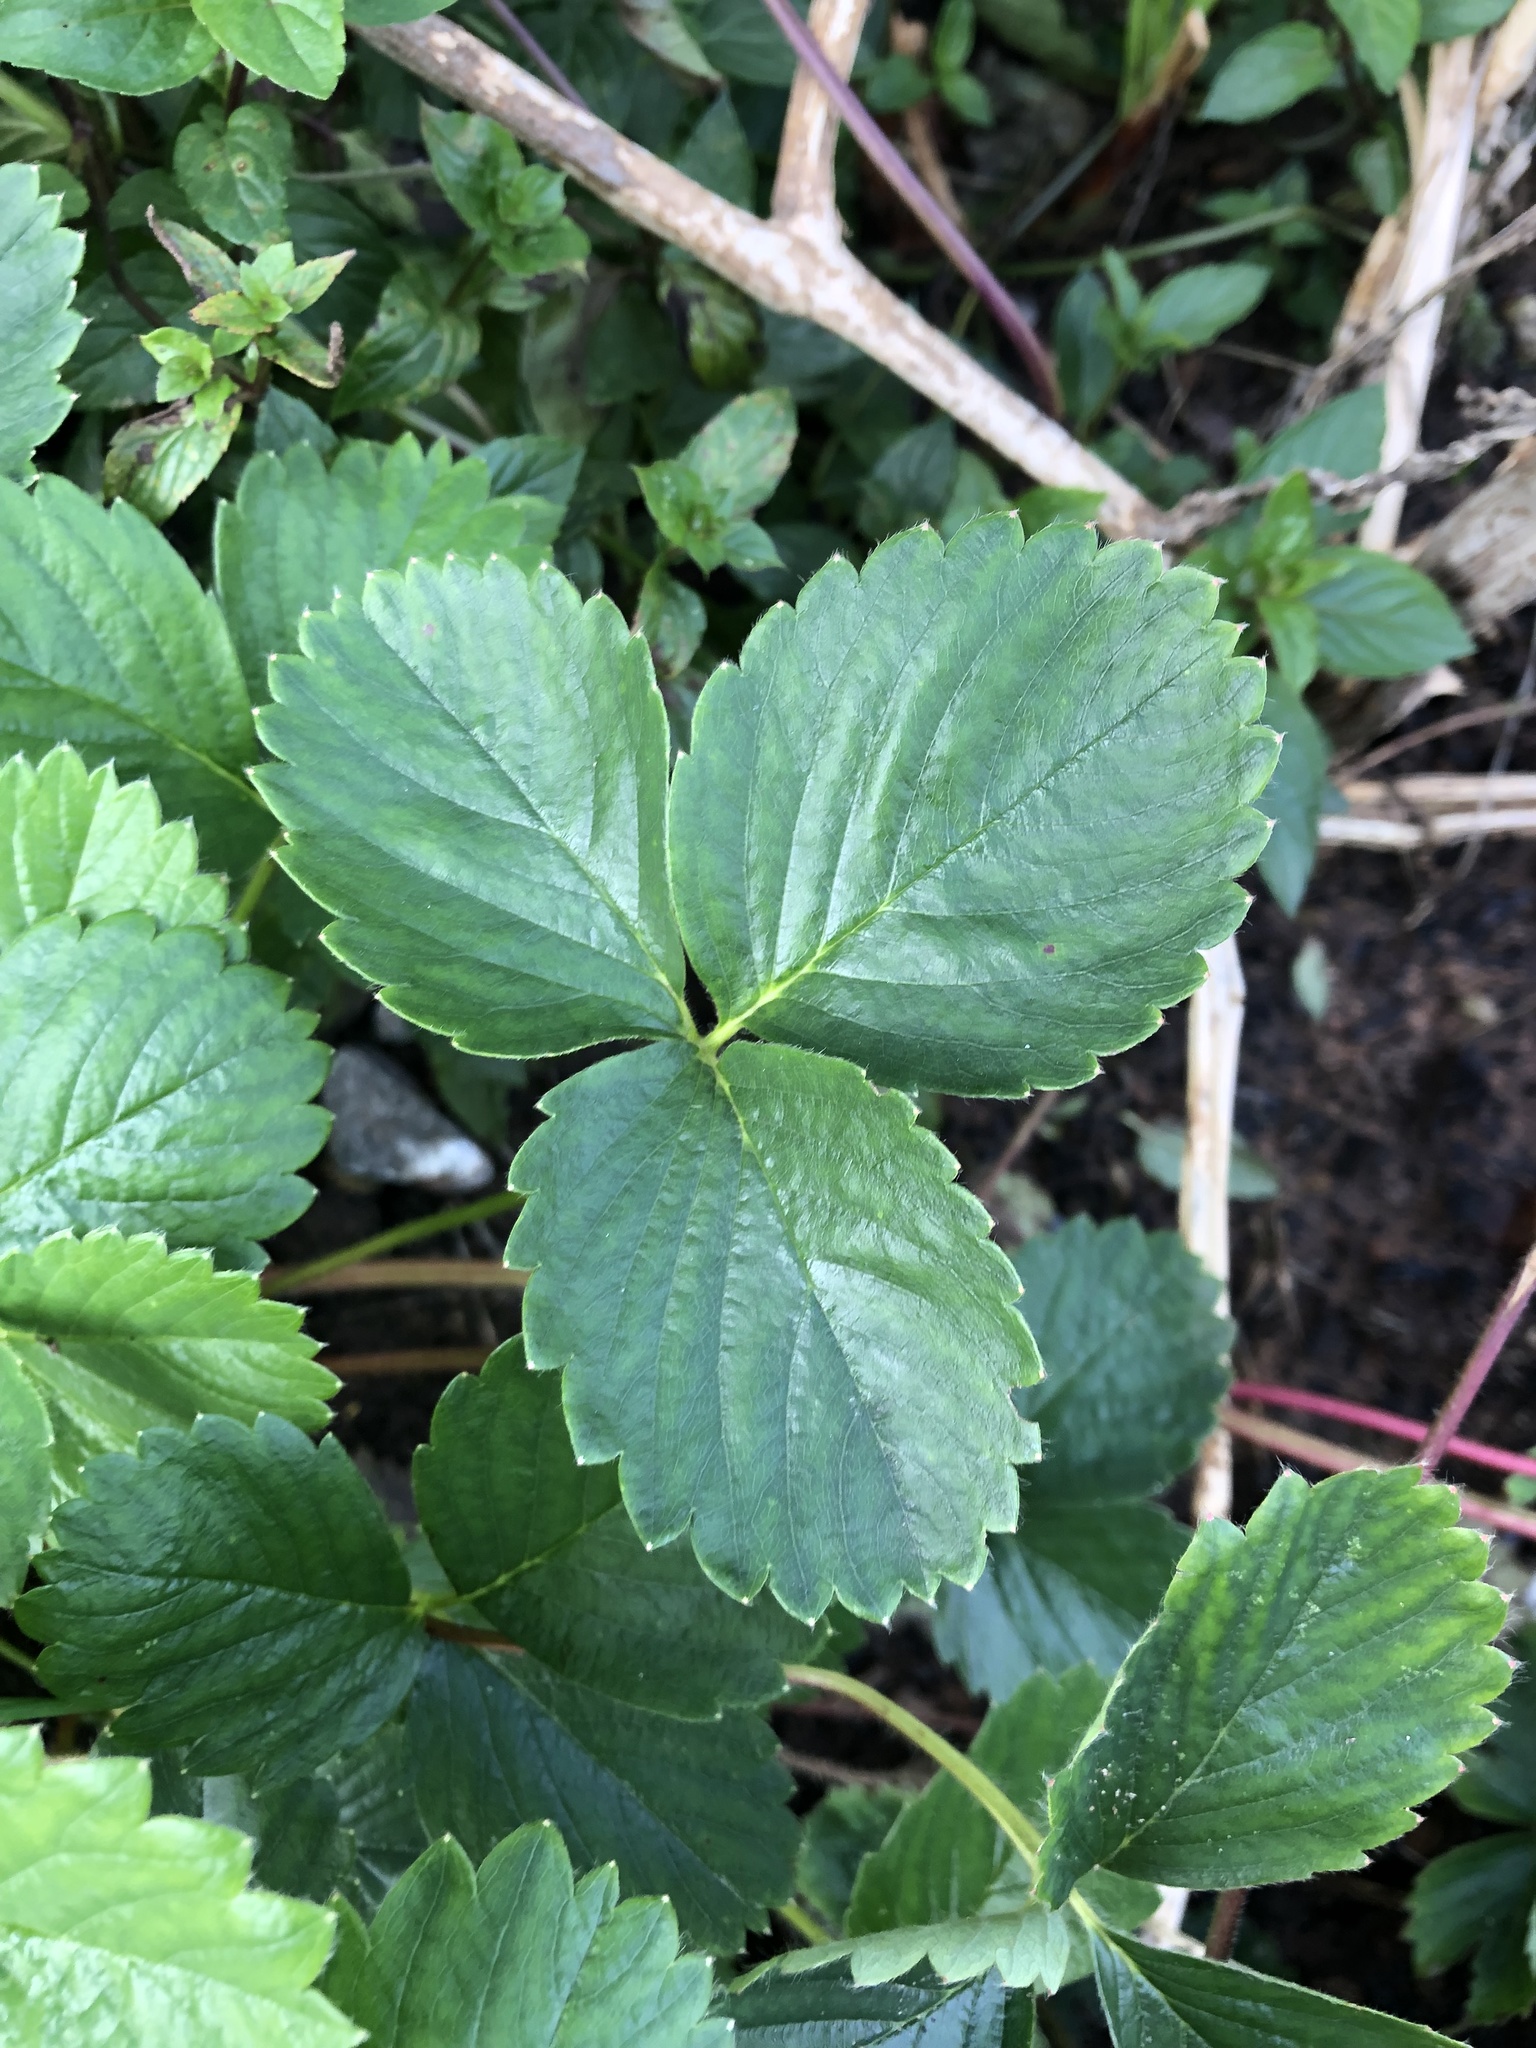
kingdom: Plantae
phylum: Tracheophyta
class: Magnoliopsida
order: Rosales
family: Rosaceae
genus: Fragaria
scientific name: Fragaria ananassa
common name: Garden strawberry
